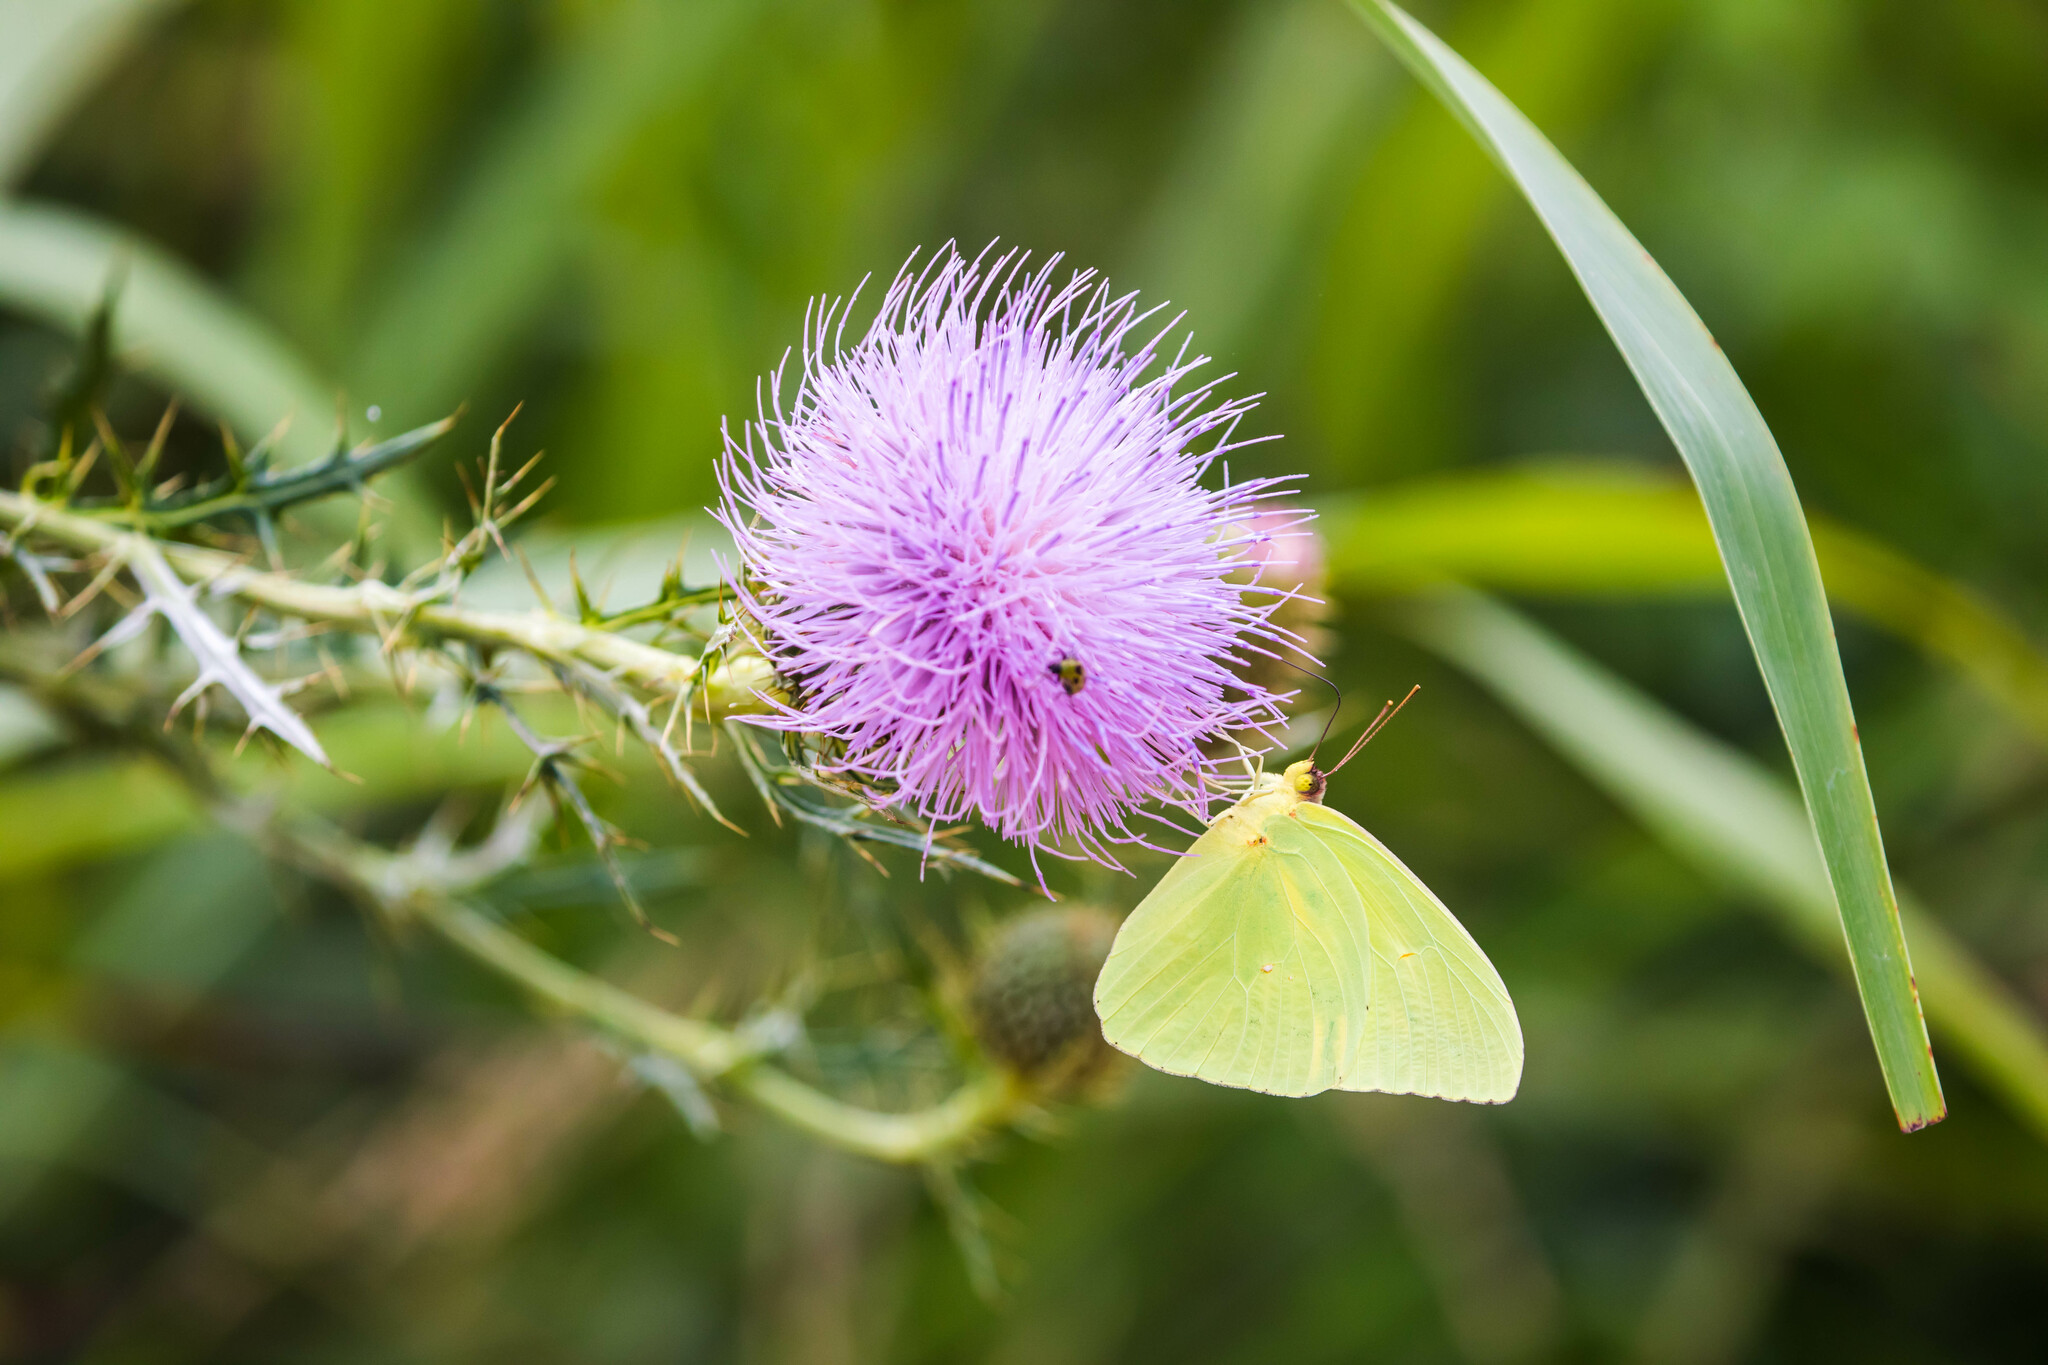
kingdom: Animalia
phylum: Arthropoda
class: Insecta
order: Lepidoptera
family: Pieridae
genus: Phoebis
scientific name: Phoebis sennae
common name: Cloudless sulphur
